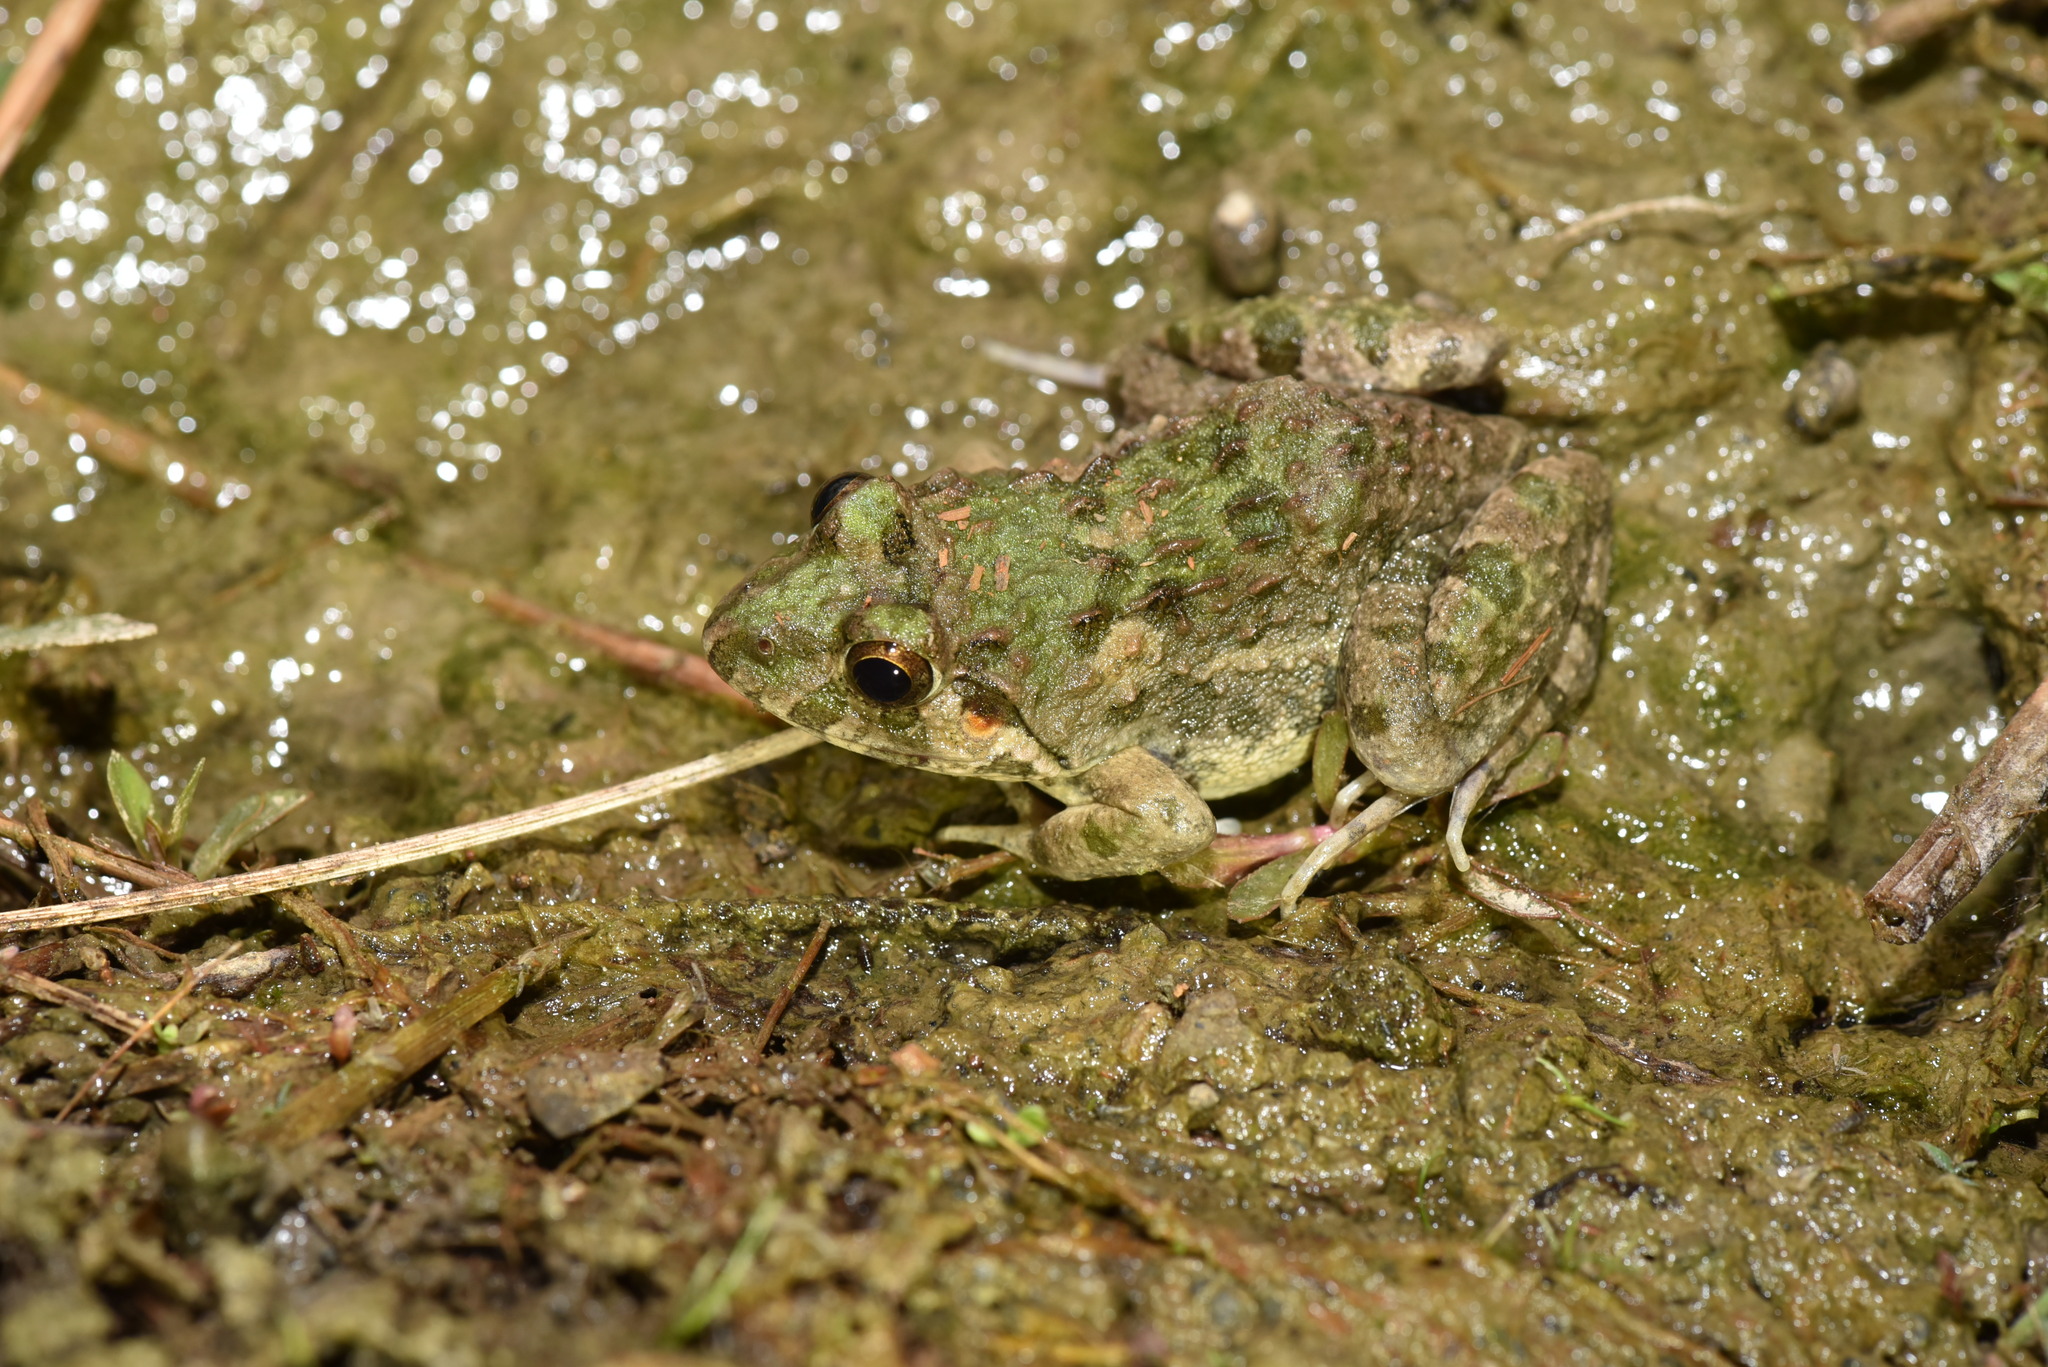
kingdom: Animalia
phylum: Chordata
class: Amphibia
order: Anura
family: Dicroglossidae
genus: Fejervarya
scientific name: Fejervarya limnocharis
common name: Asian grass frog/common pond frog/field frog/grass frog/indian rice frog
